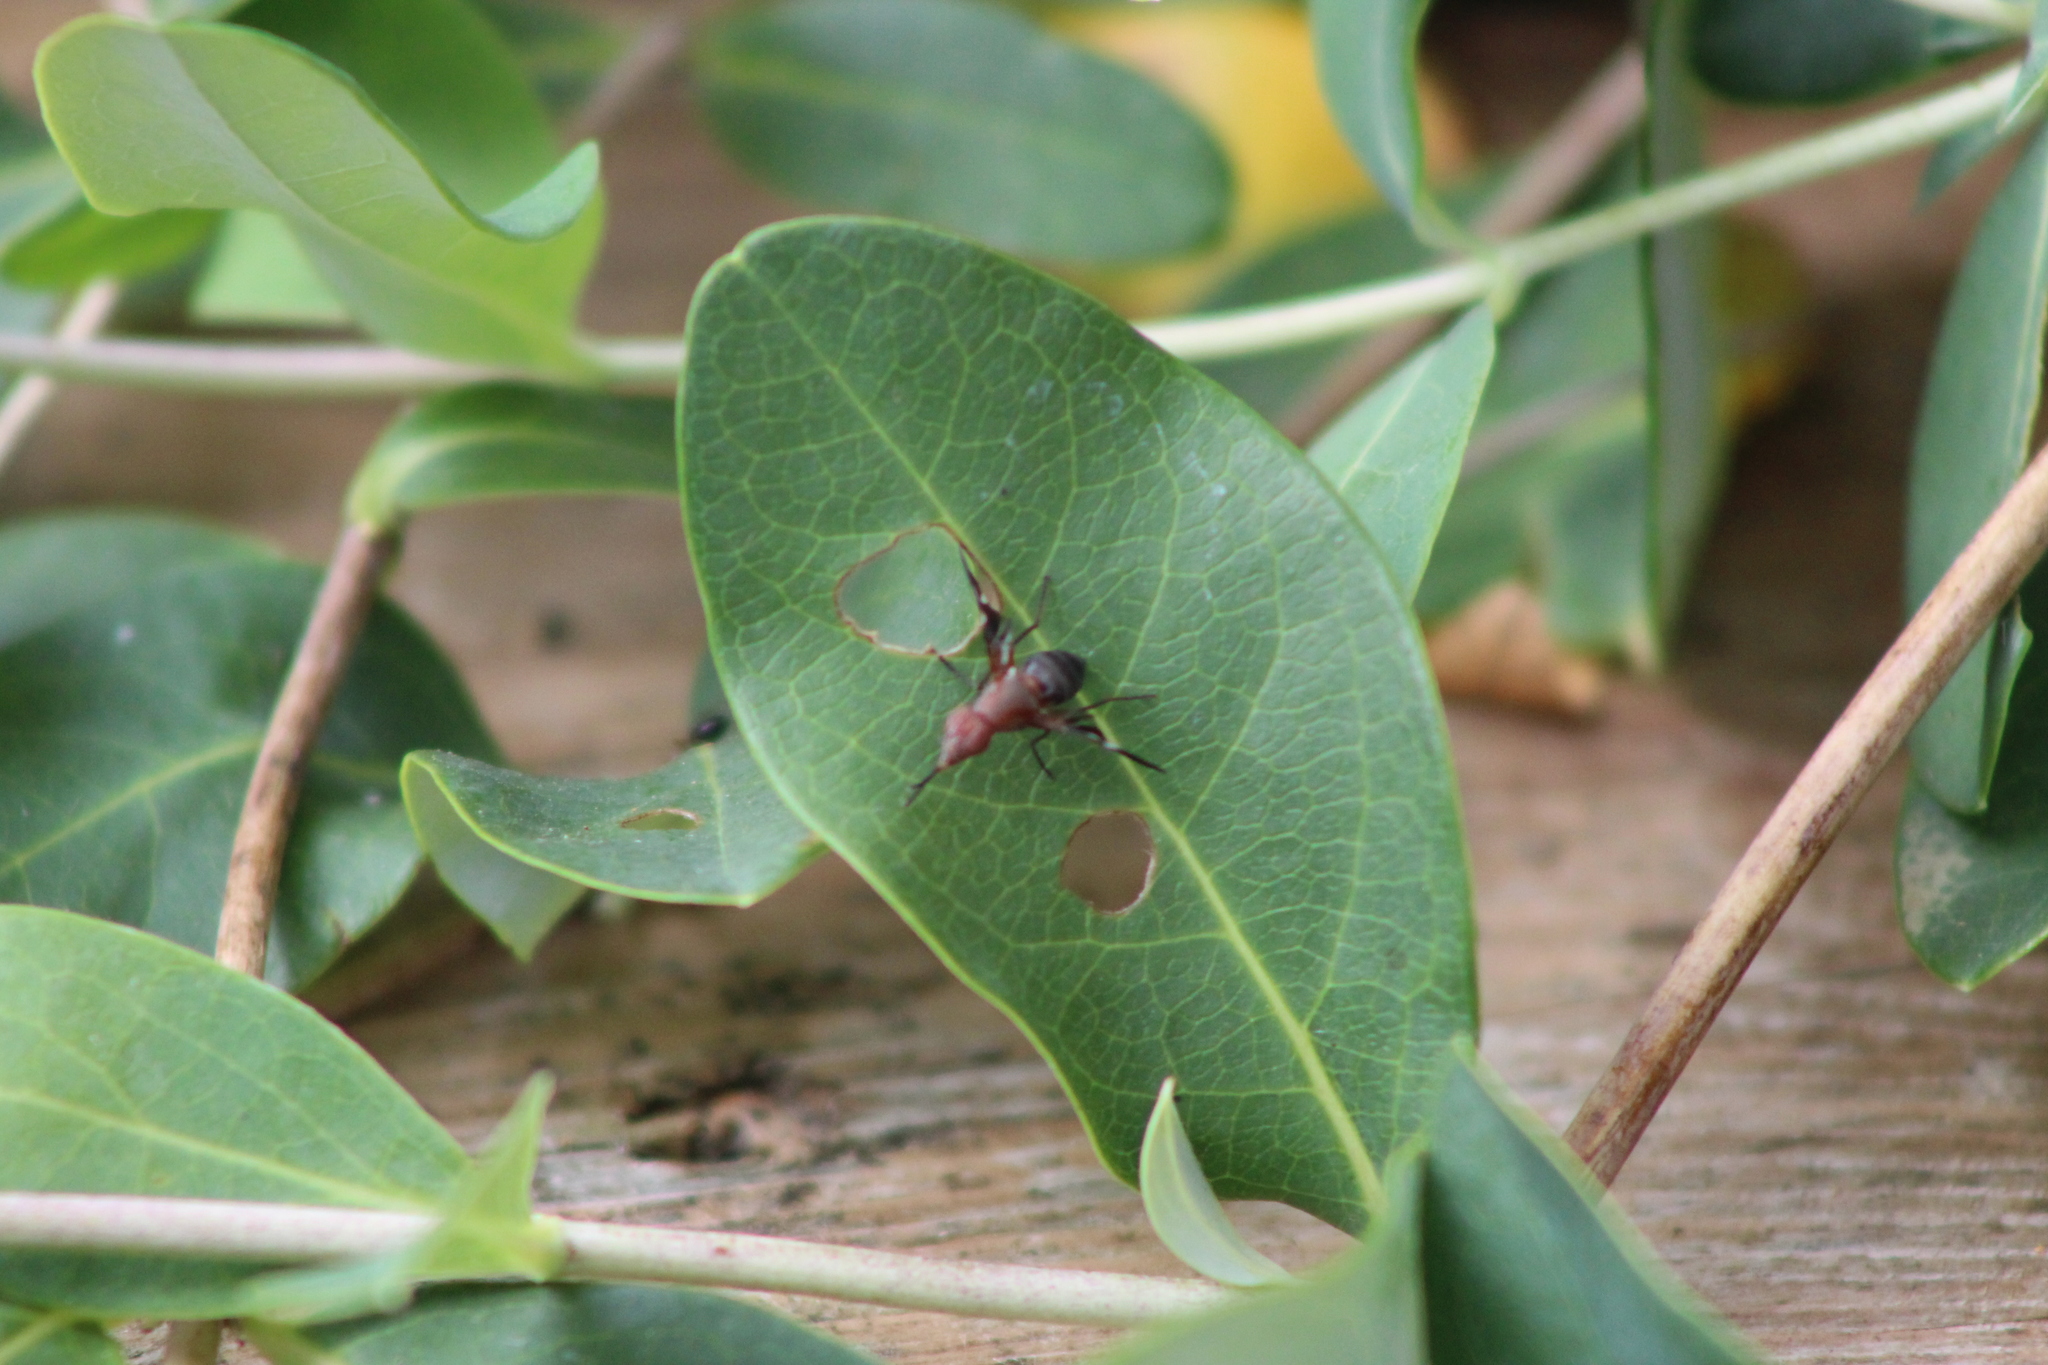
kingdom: Animalia
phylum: Arthropoda
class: Insecta
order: Diptera
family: Ulidiidae
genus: Delphinia
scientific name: Delphinia picta
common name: Common picture-winged fly
